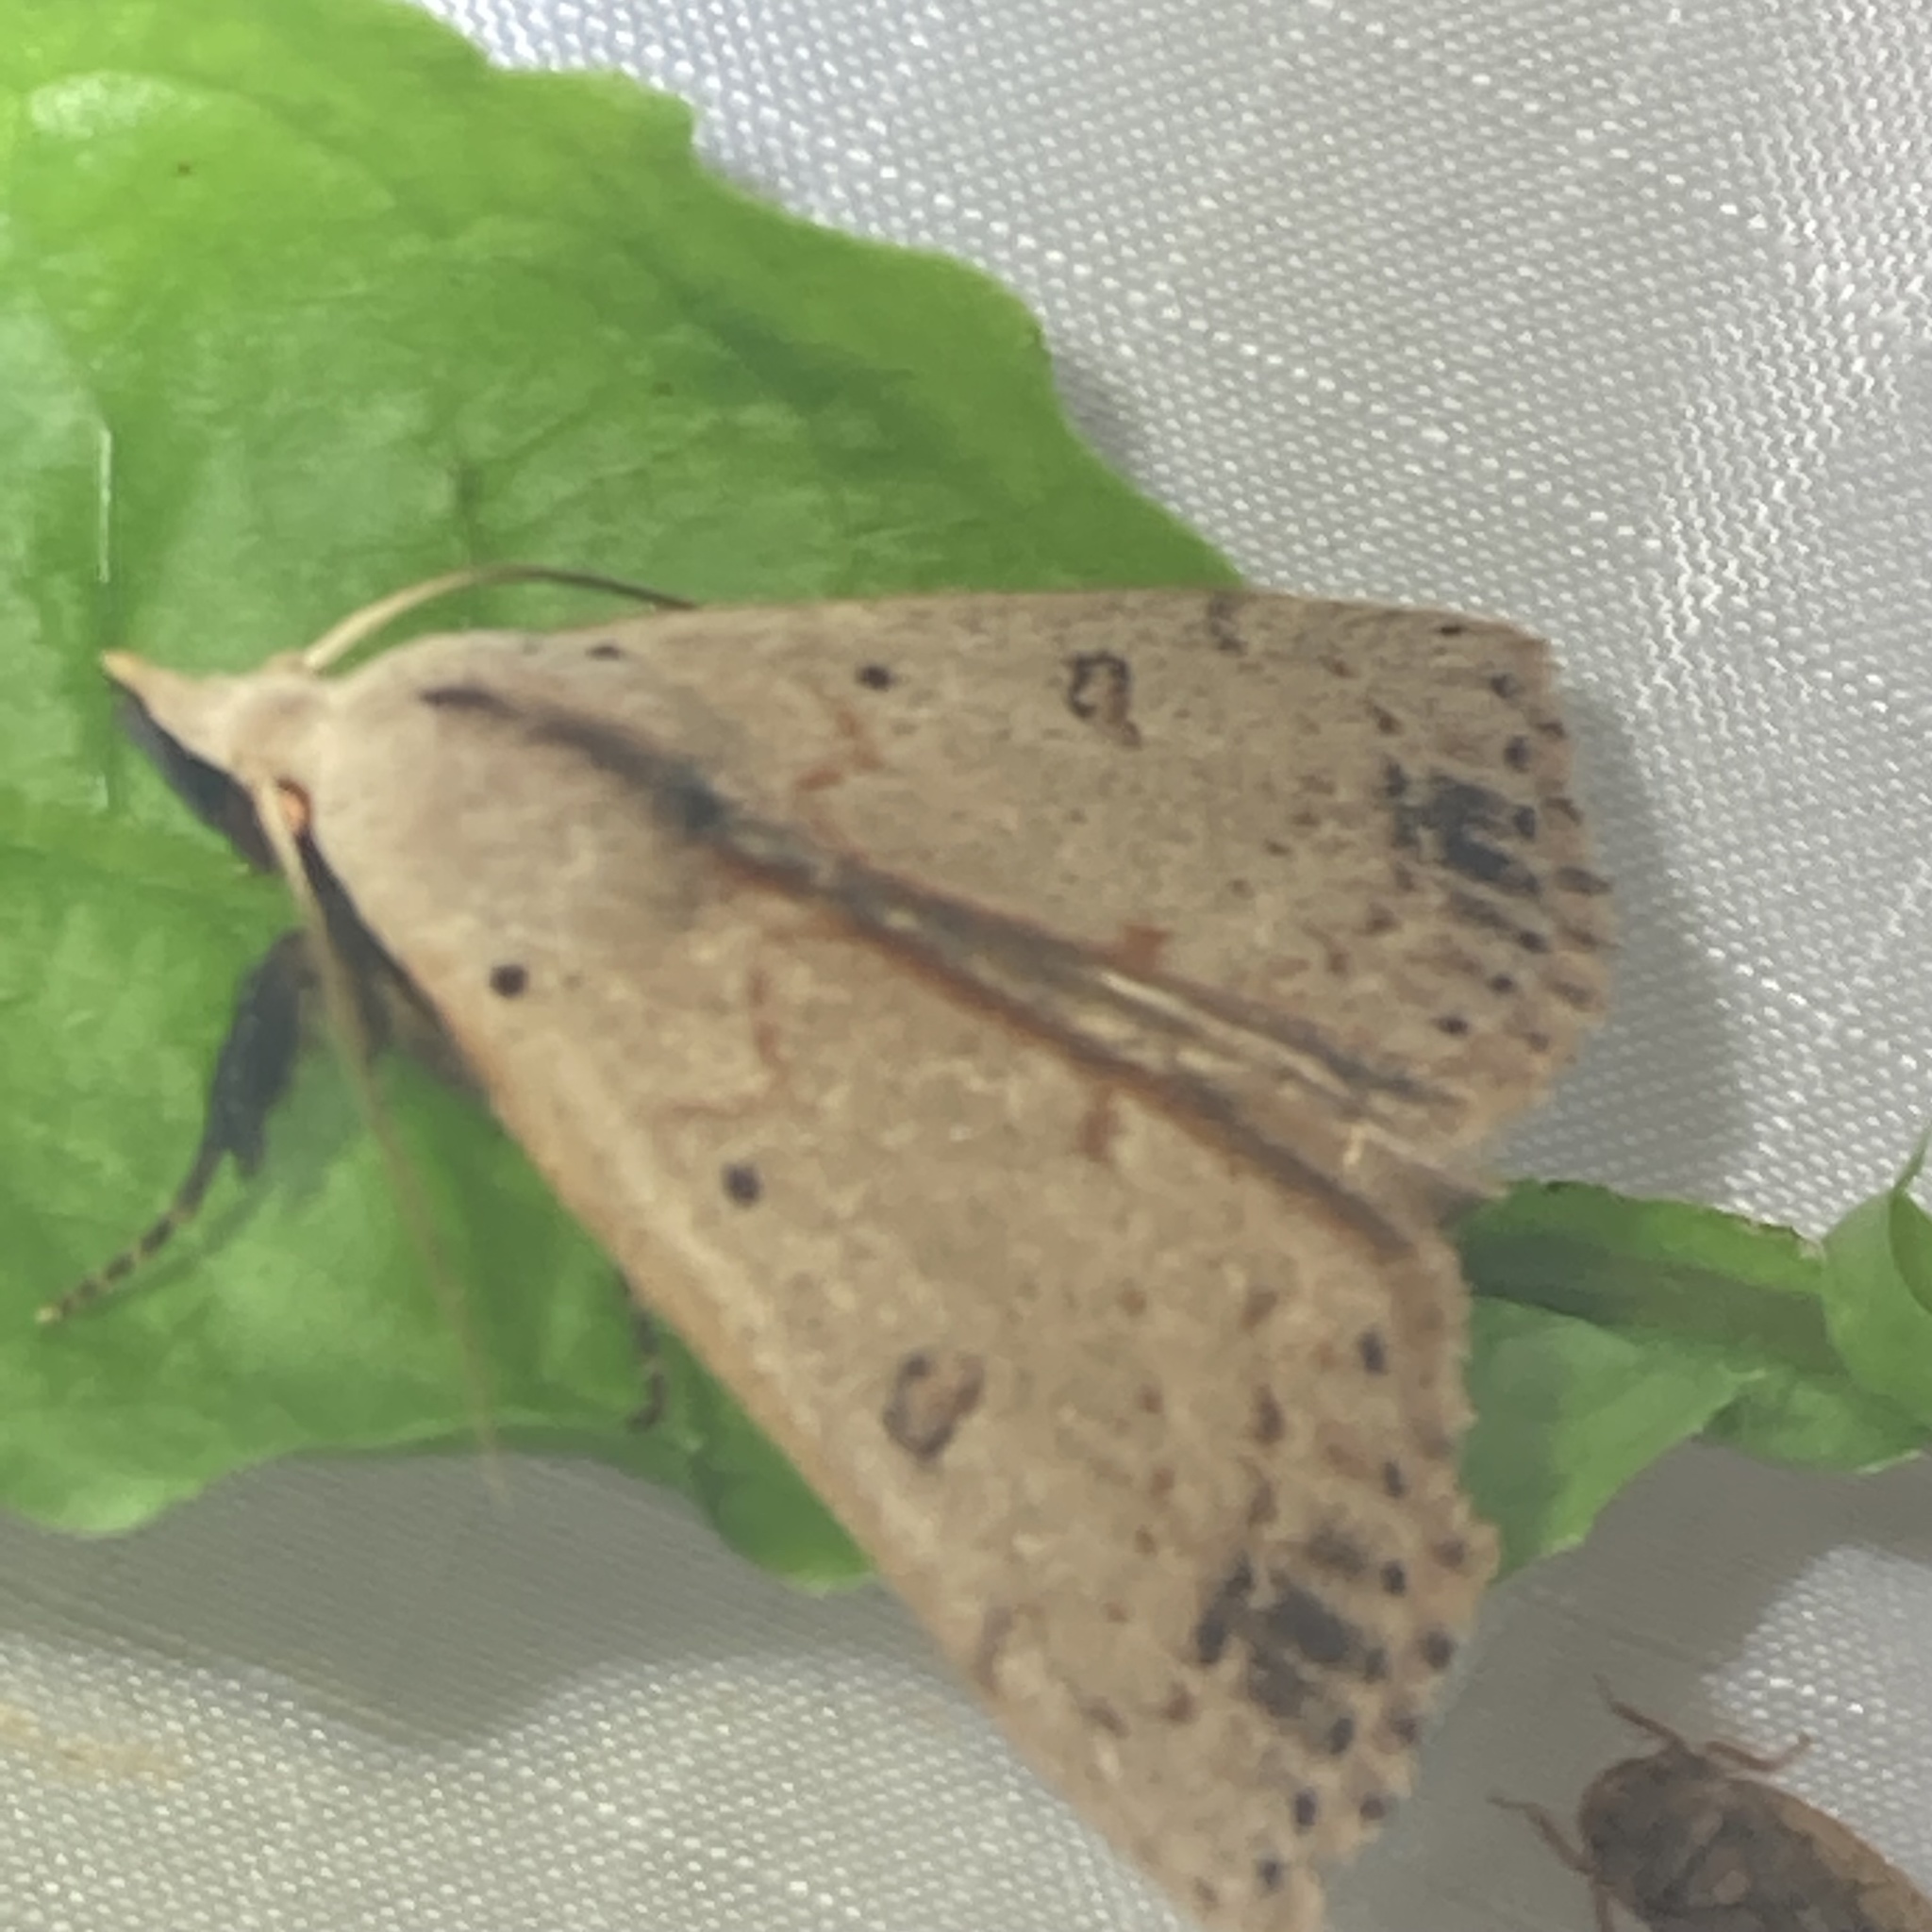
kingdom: Animalia
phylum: Arthropoda
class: Insecta
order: Lepidoptera
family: Erebidae
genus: Scolecocampa
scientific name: Scolecocampa liburna
